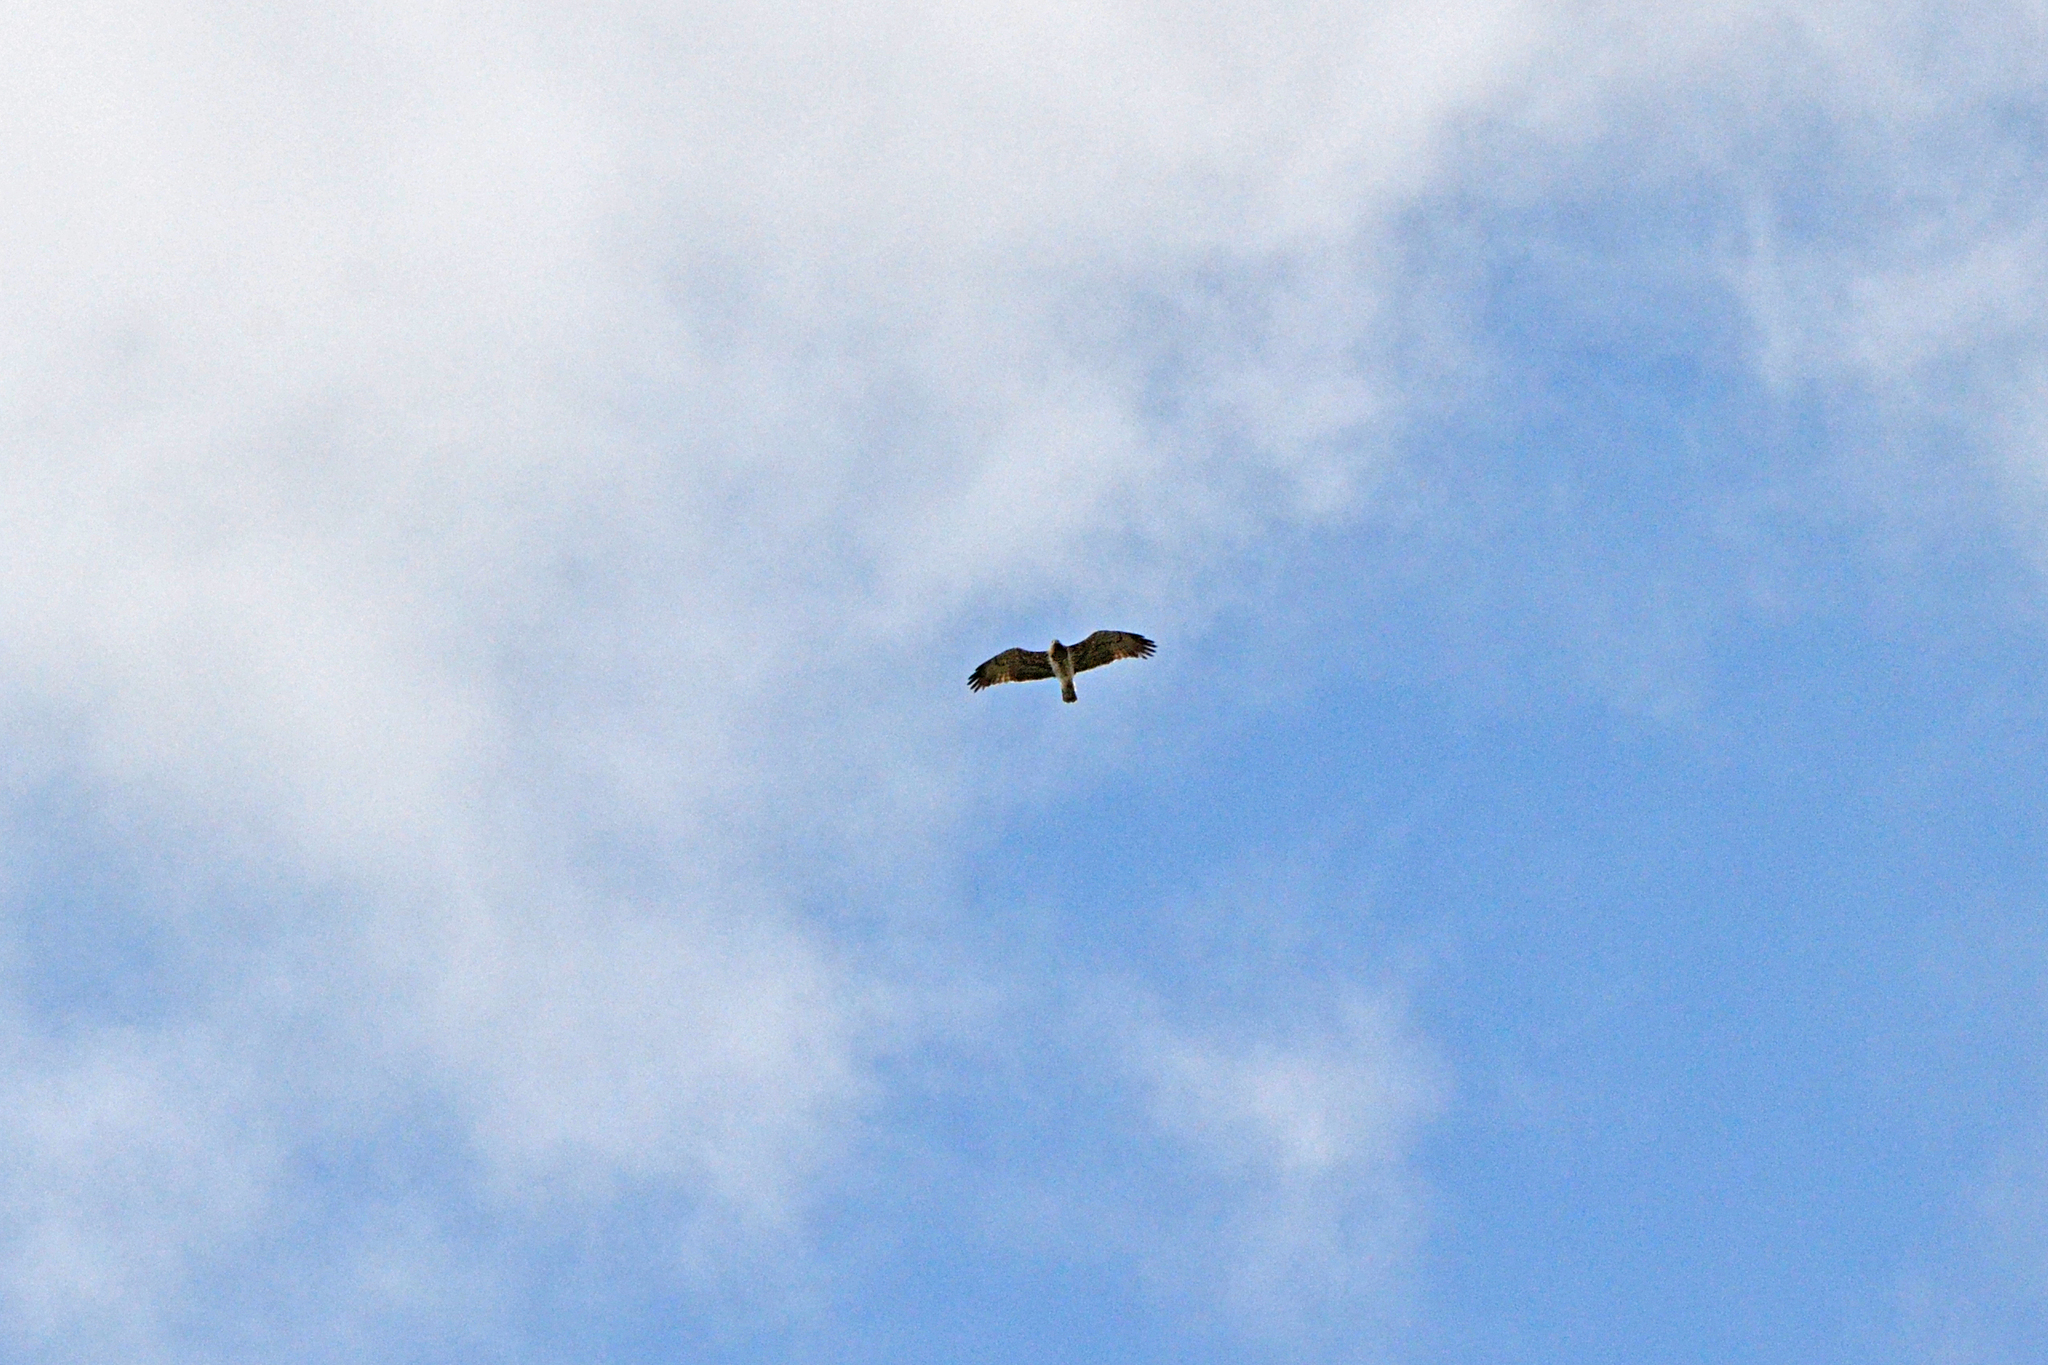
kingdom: Animalia
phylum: Chordata
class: Aves
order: Accipitriformes
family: Accipitridae
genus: Circaetus
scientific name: Circaetus gallicus
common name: Short-toed snake eagle
